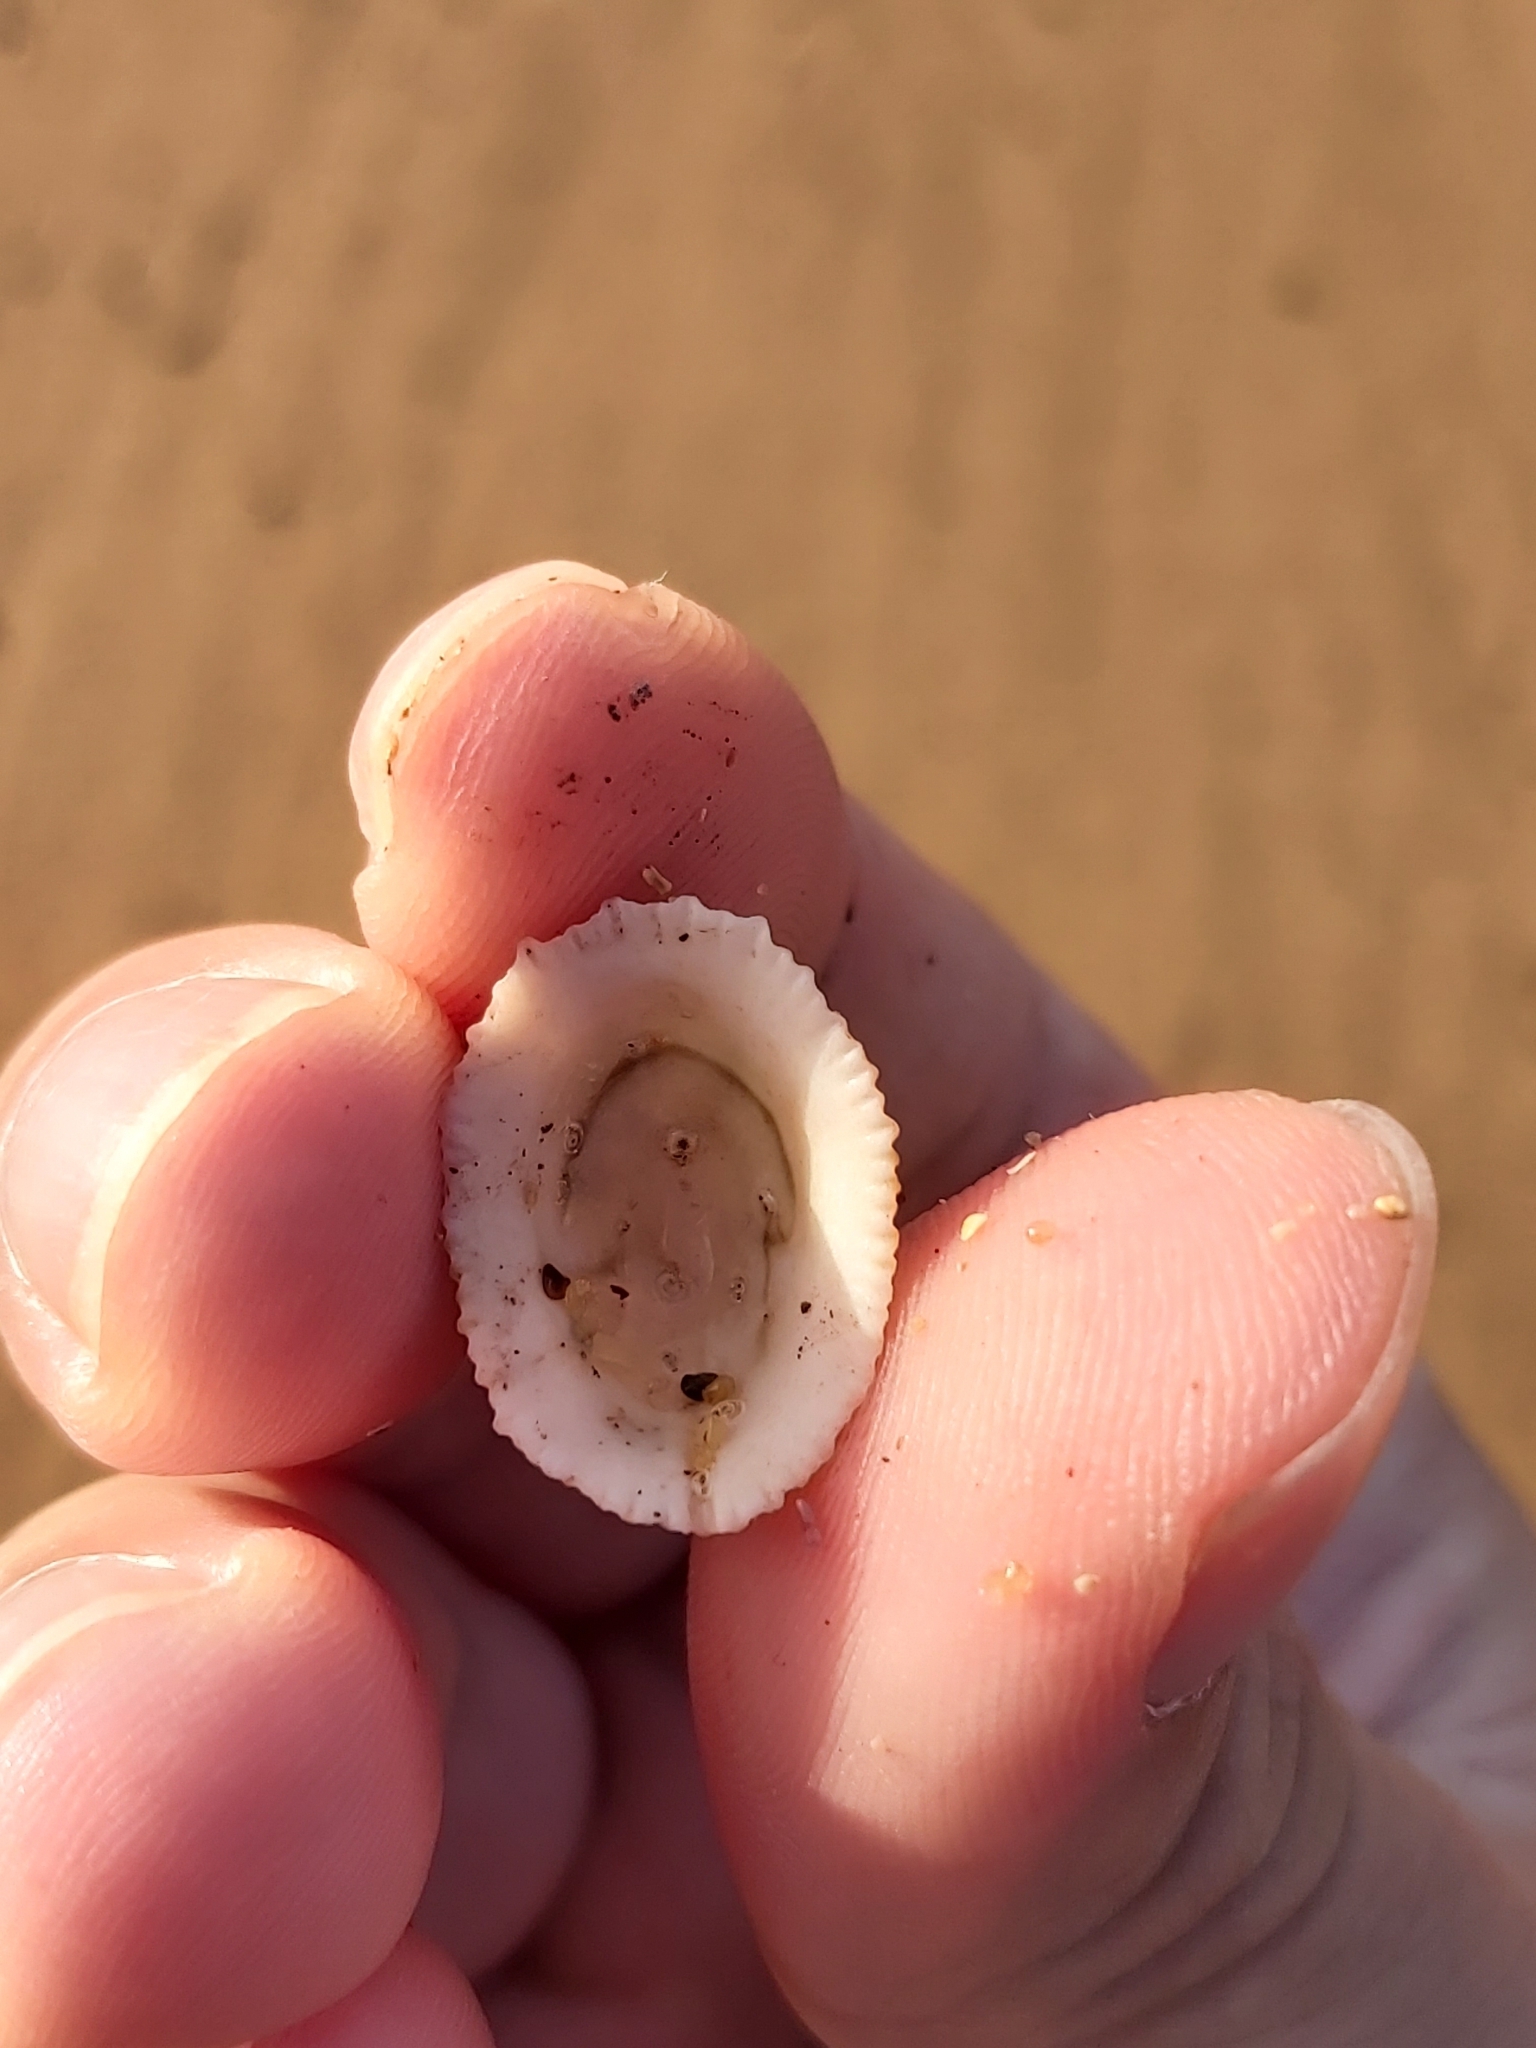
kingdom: Animalia
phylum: Mollusca
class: Gastropoda
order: Lepetellida
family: Fissurellidae
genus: Montfortula
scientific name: Montfortula rugosa
